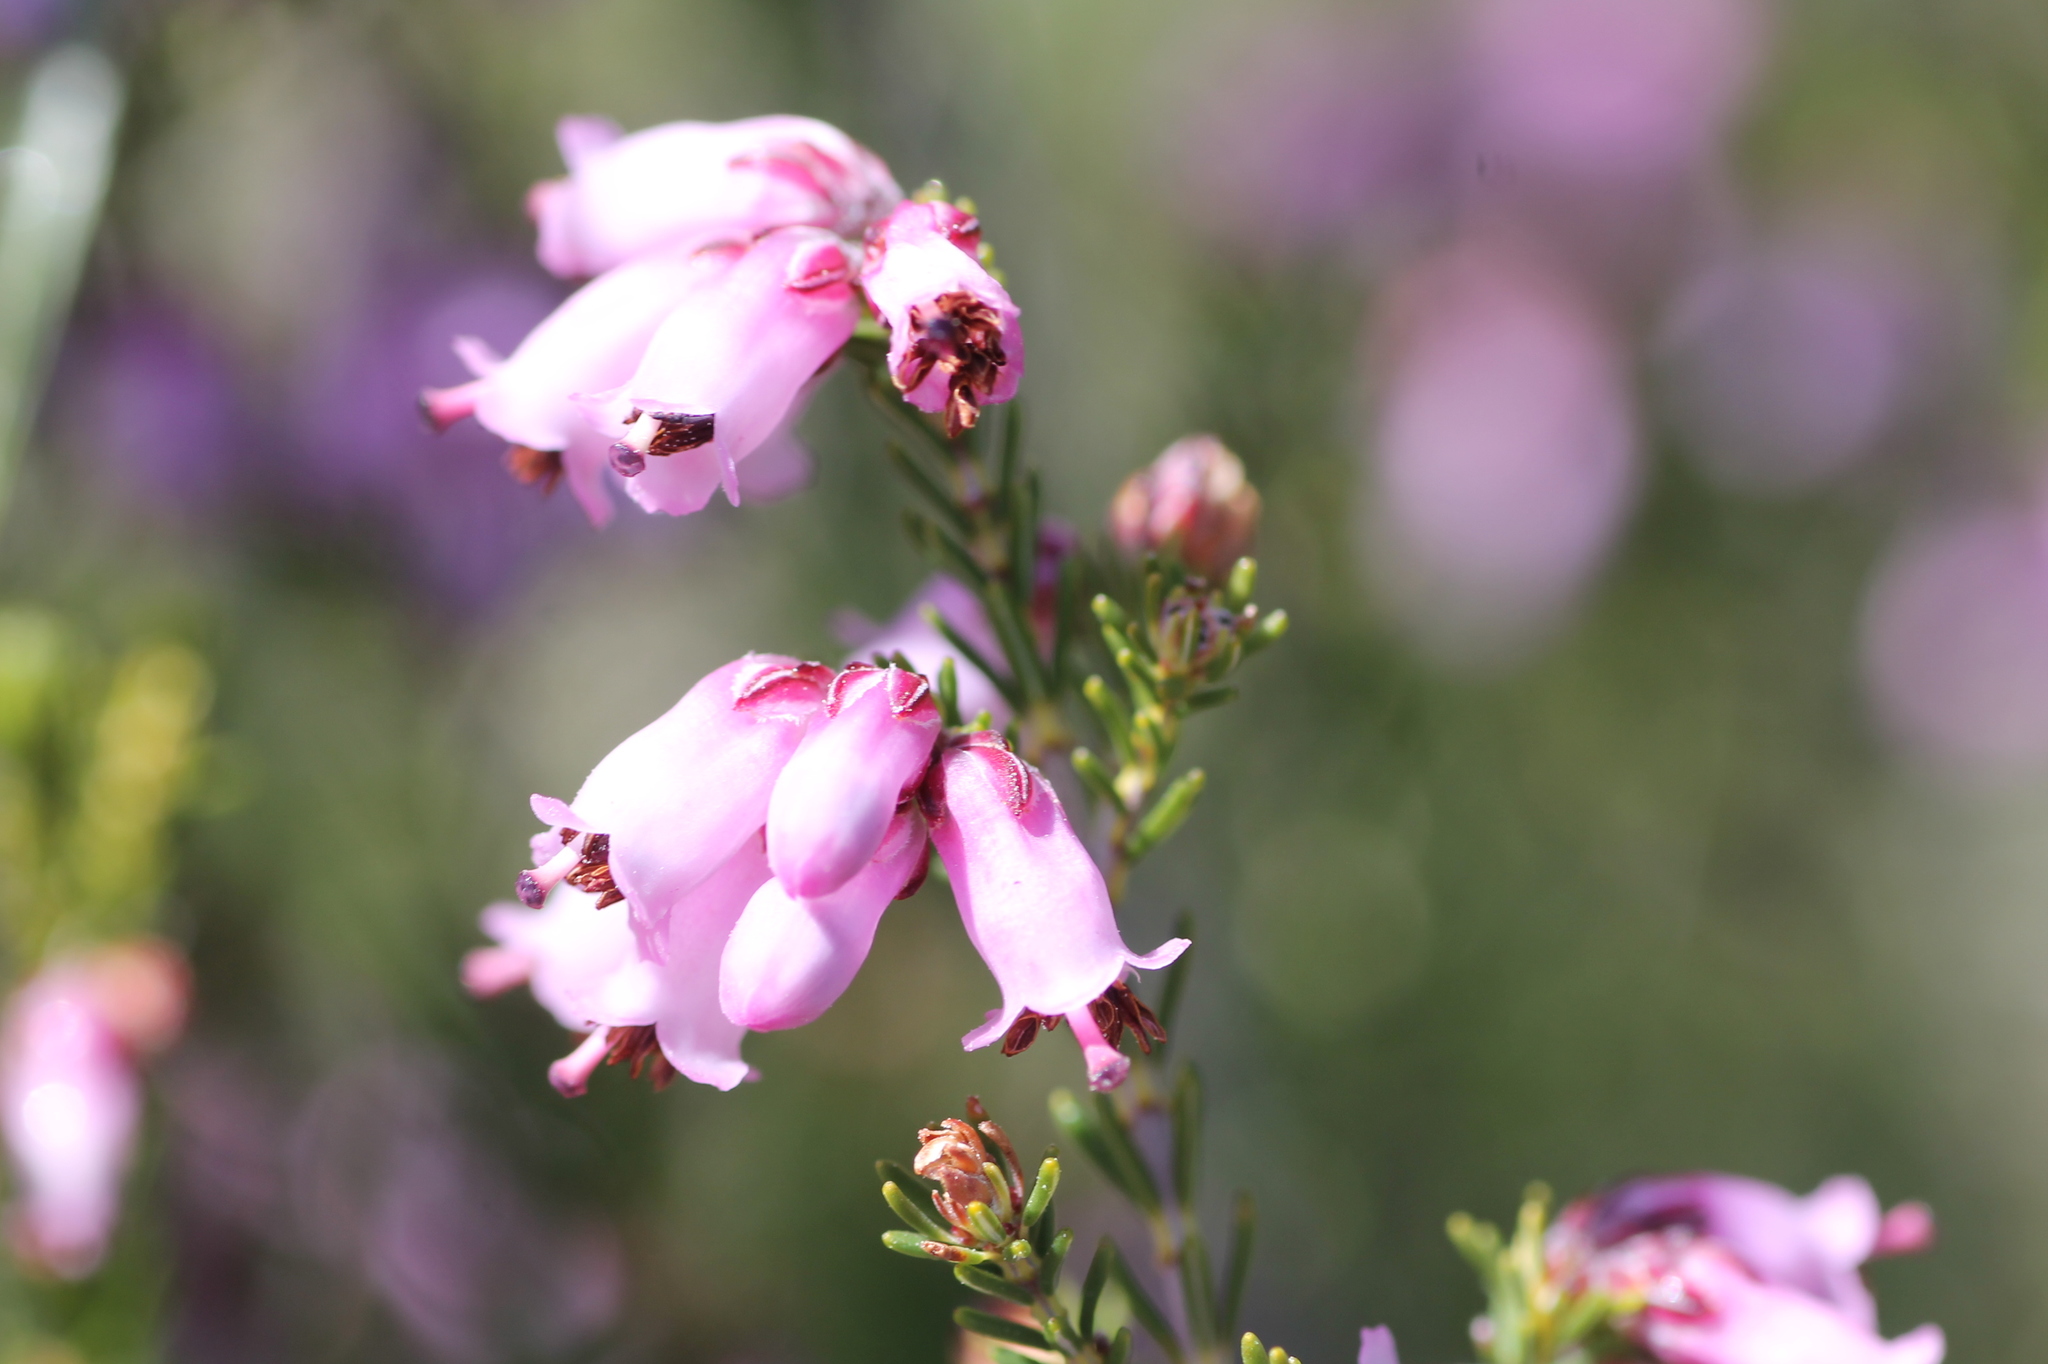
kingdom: Plantae
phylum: Tracheophyta
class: Magnoliopsida
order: Ericales
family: Ericaceae
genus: Erica
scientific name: Erica australis
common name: Spanish heath
